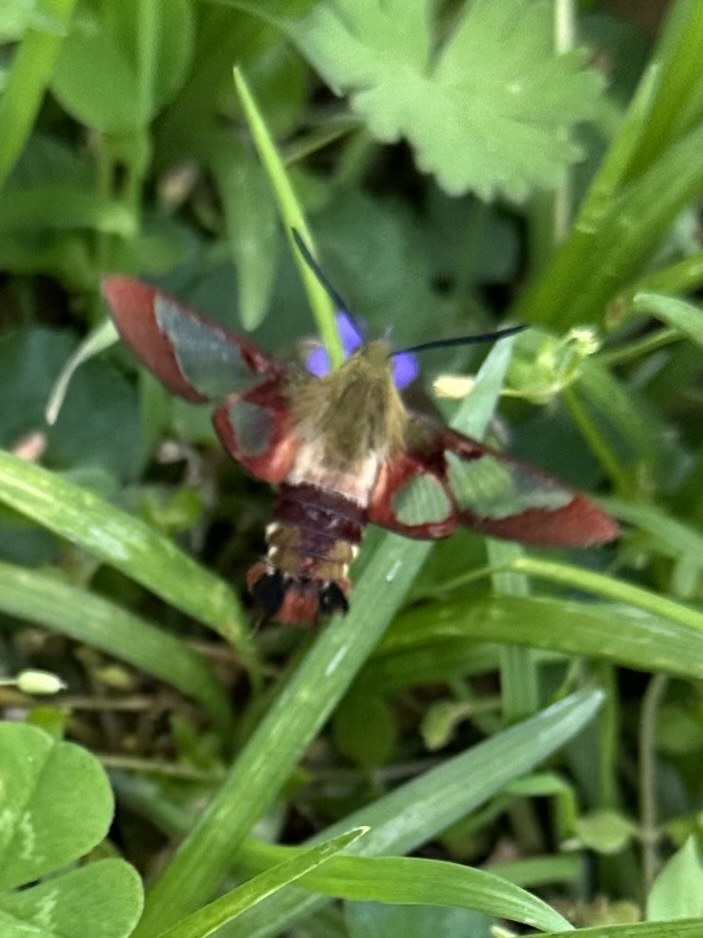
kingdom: Animalia
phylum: Arthropoda
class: Insecta
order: Lepidoptera
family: Sphingidae
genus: Hemaris
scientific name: Hemaris thysbe
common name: Common clear-wing
